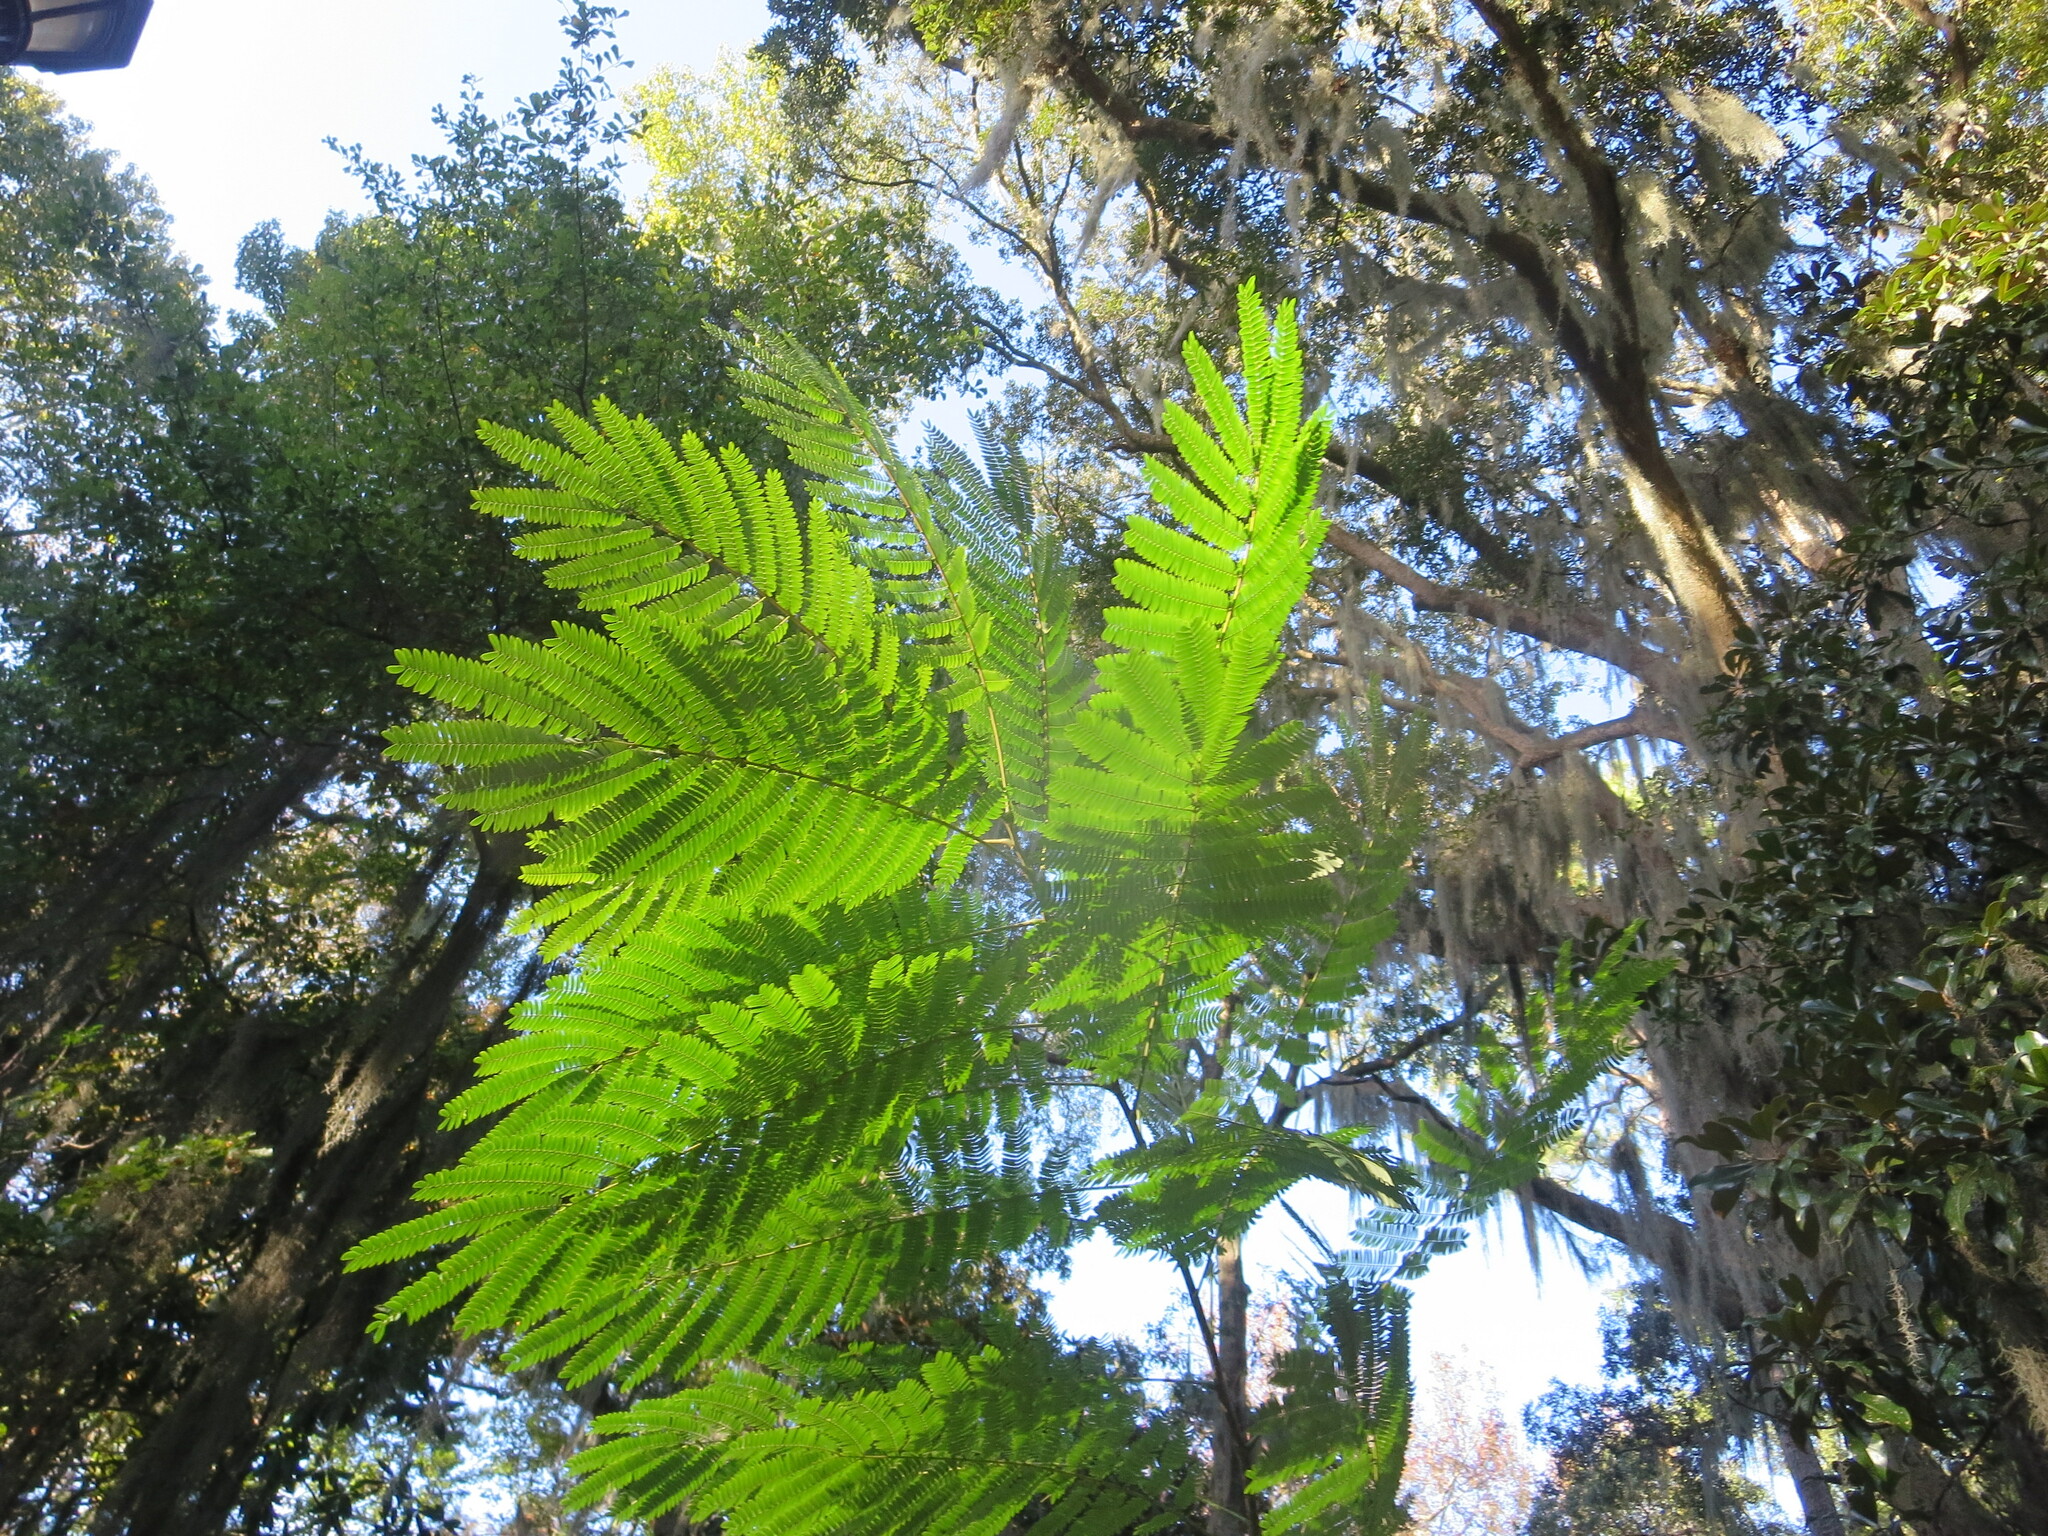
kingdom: Plantae
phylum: Tracheophyta
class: Magnoliopsida
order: Fabales
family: Fabaceae
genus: Albizia
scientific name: Albizia julibrissin
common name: Silktree
